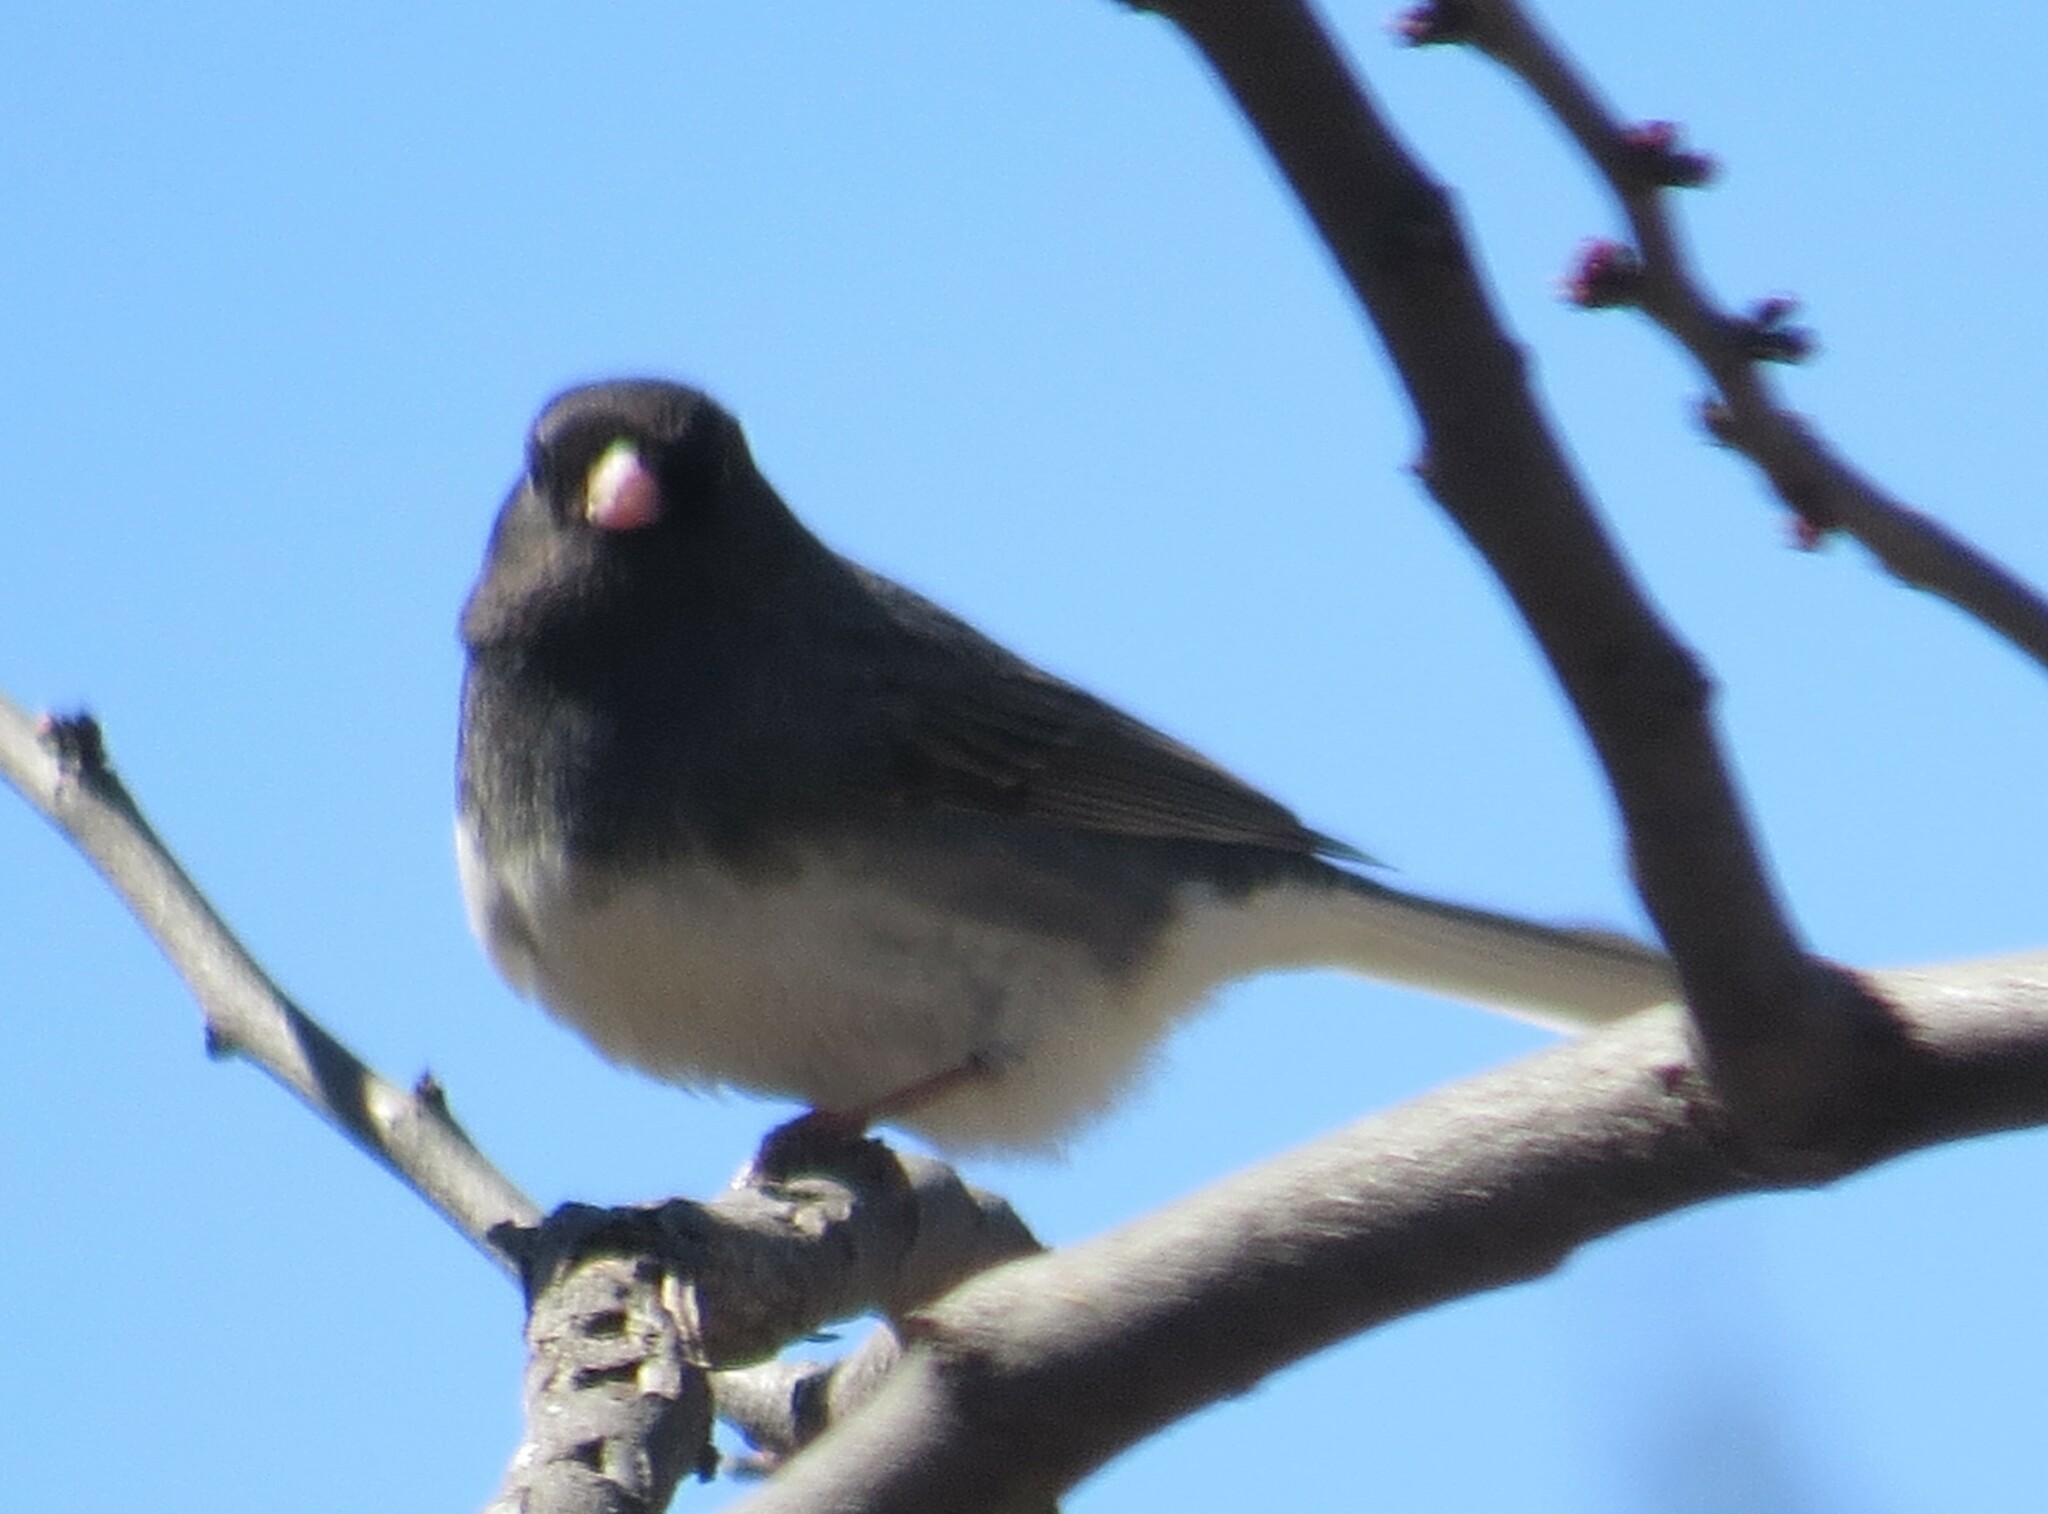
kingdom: Animalia
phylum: Chordata
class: Aves
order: Passeriformes
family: Passerellidae
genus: Junco
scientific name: Junco hyemalis
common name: Dark-eyed junco
